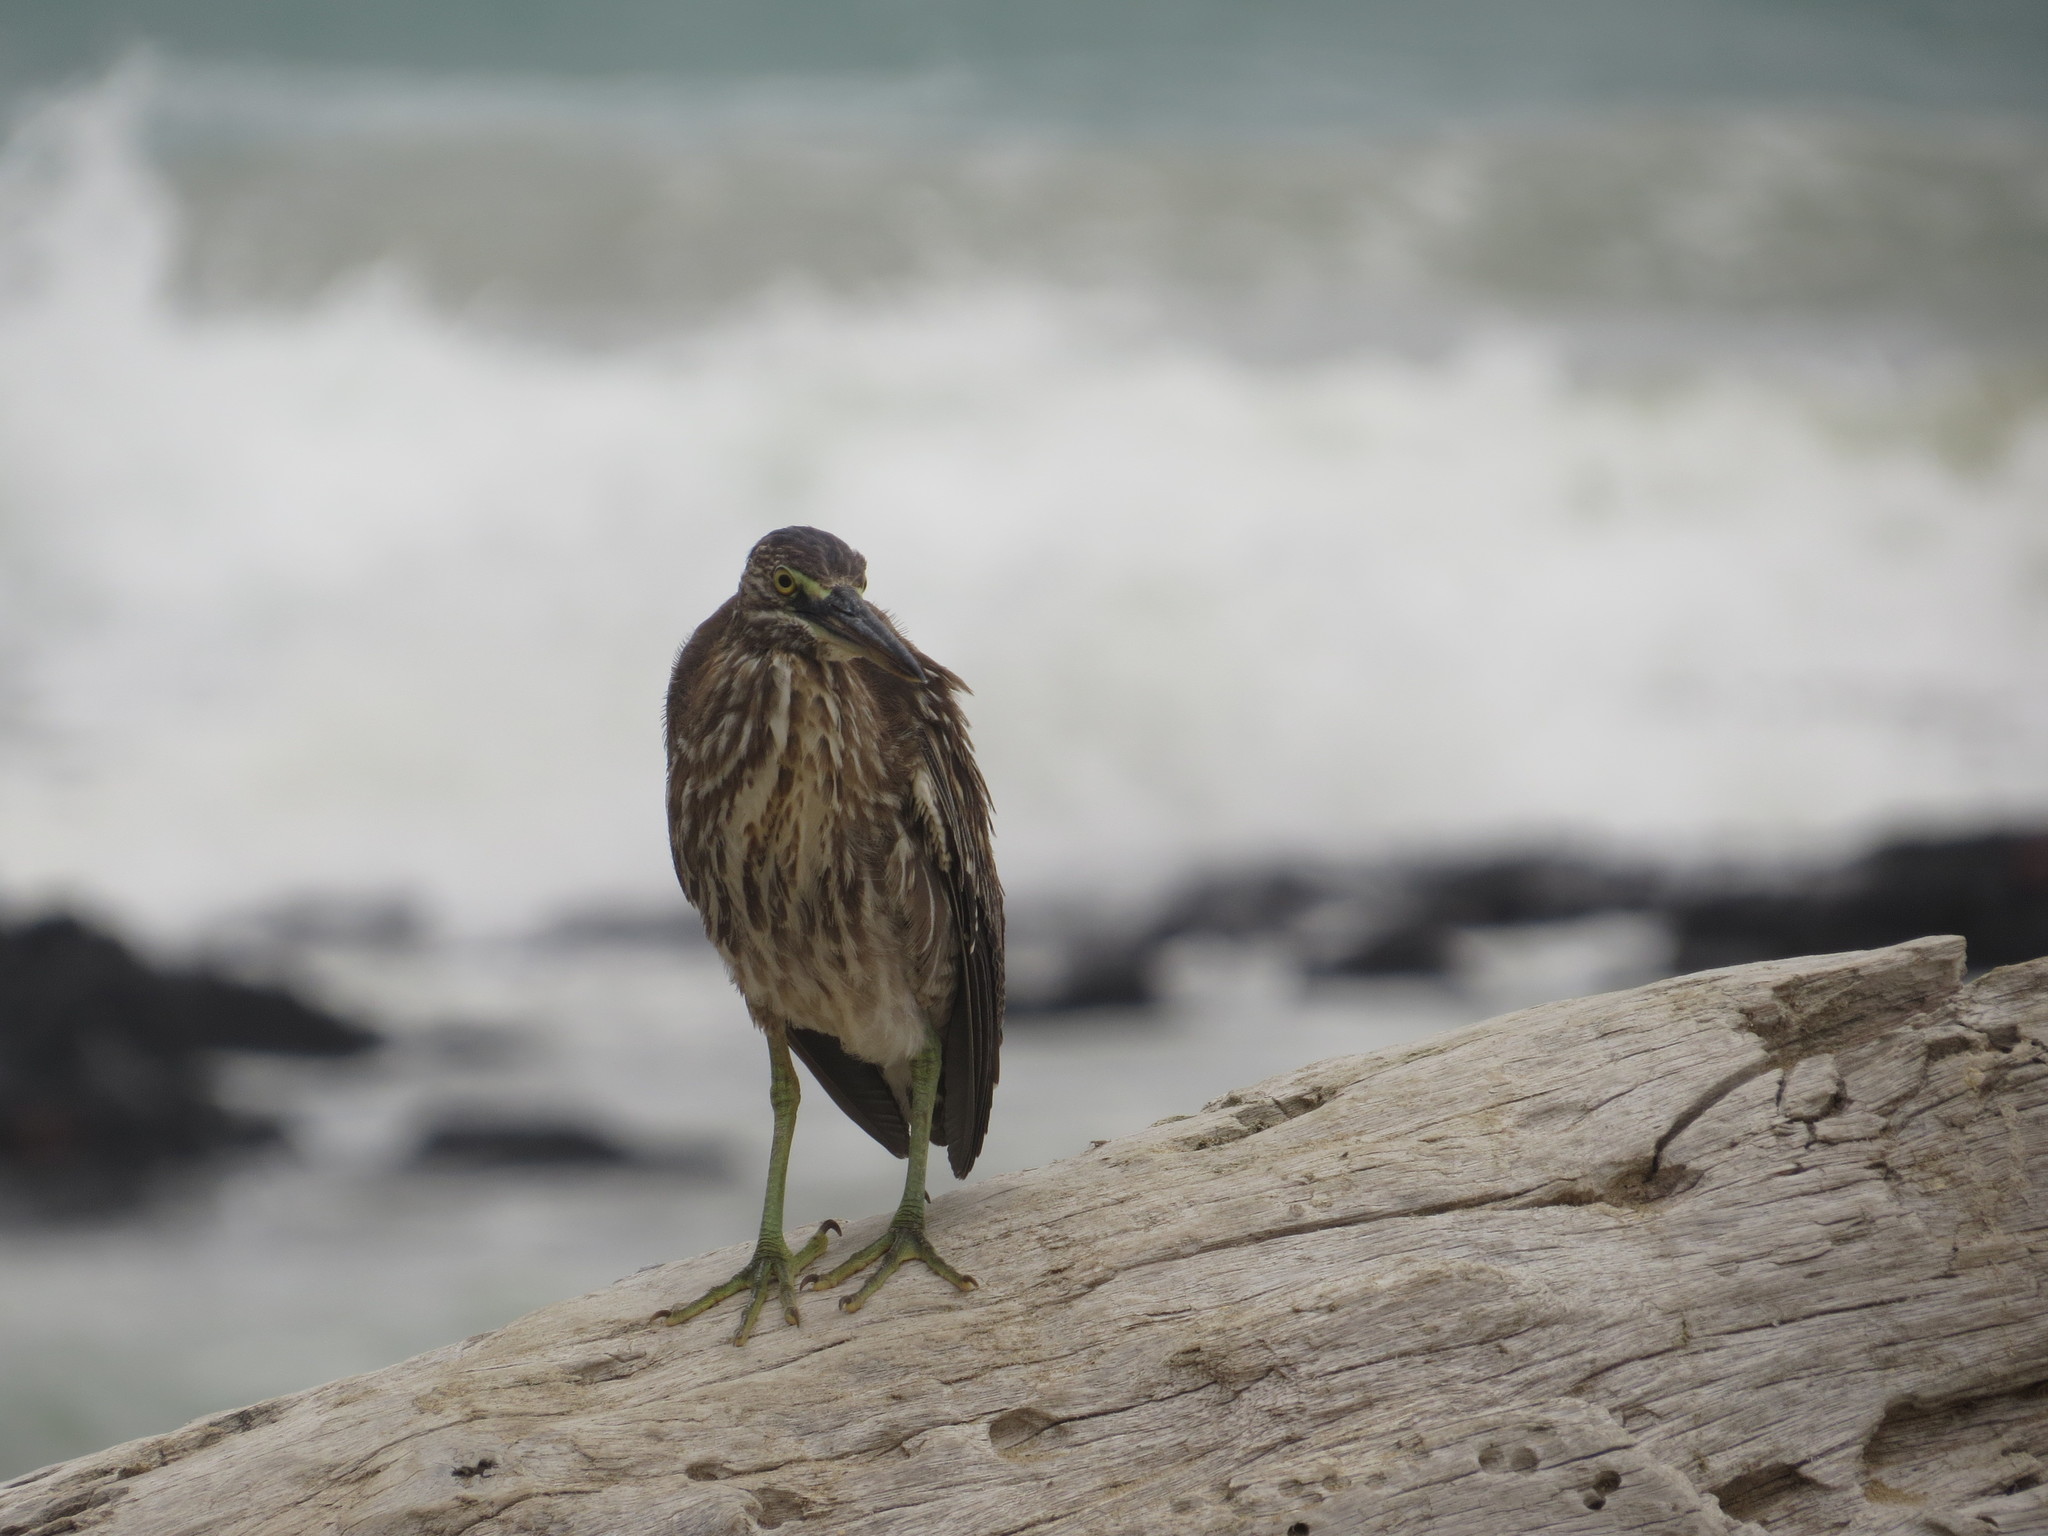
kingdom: Animalia
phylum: Chordata
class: Aves
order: Pelecaniformes
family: Ardeidae
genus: Butorides
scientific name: Butorides striata
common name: Striated heron
